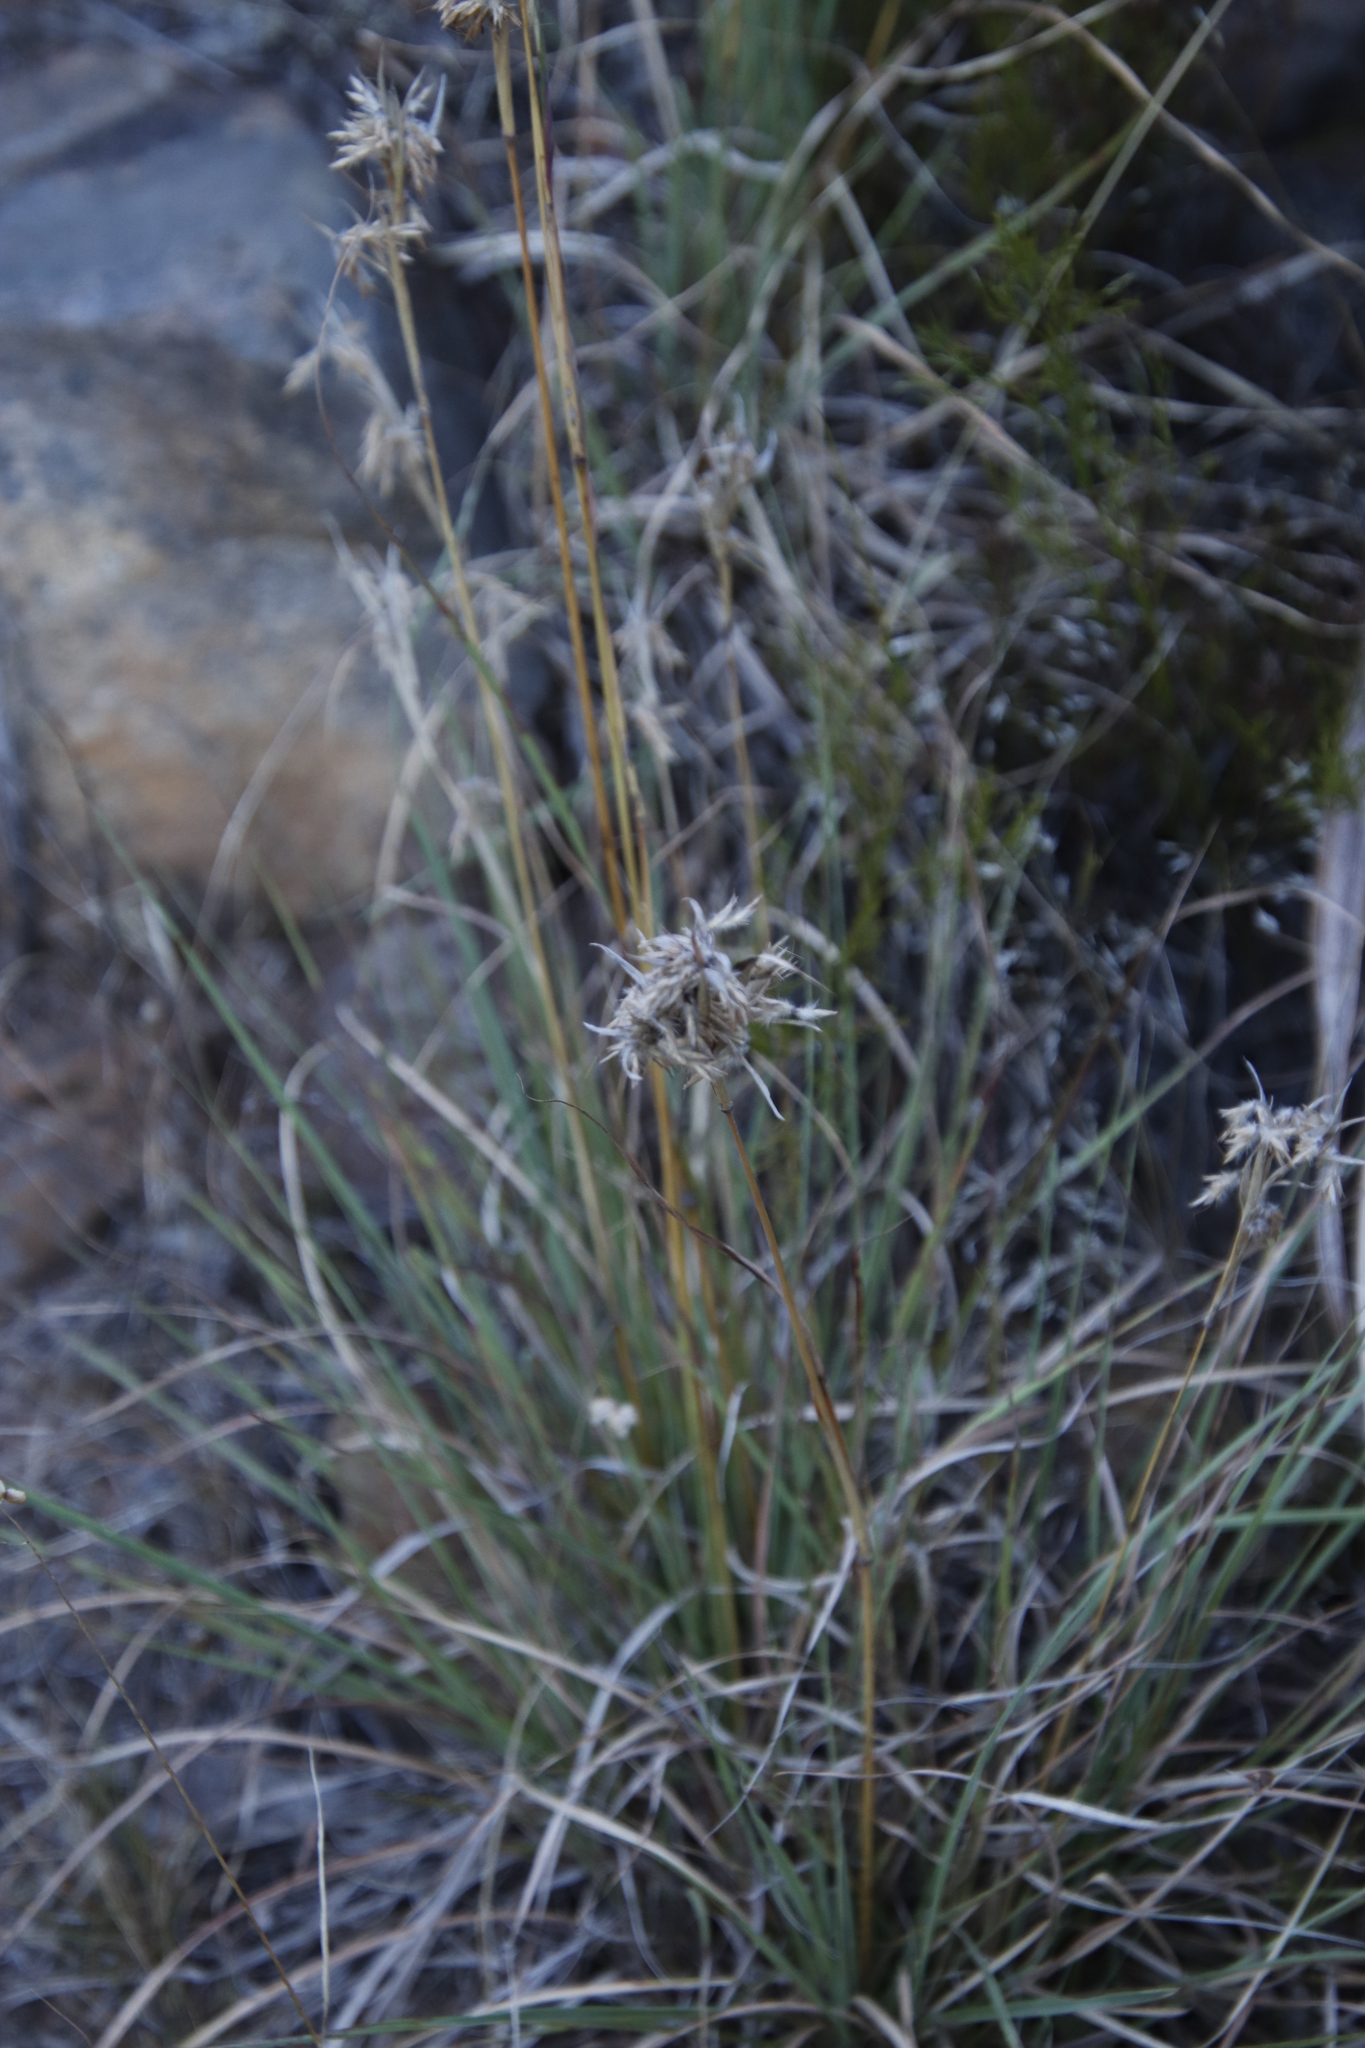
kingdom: Plantae
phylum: Tracheophyta
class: Liliopsida
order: Poales
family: Poaceae
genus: Cymbopogon
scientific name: Cymbopogon pospischilii
